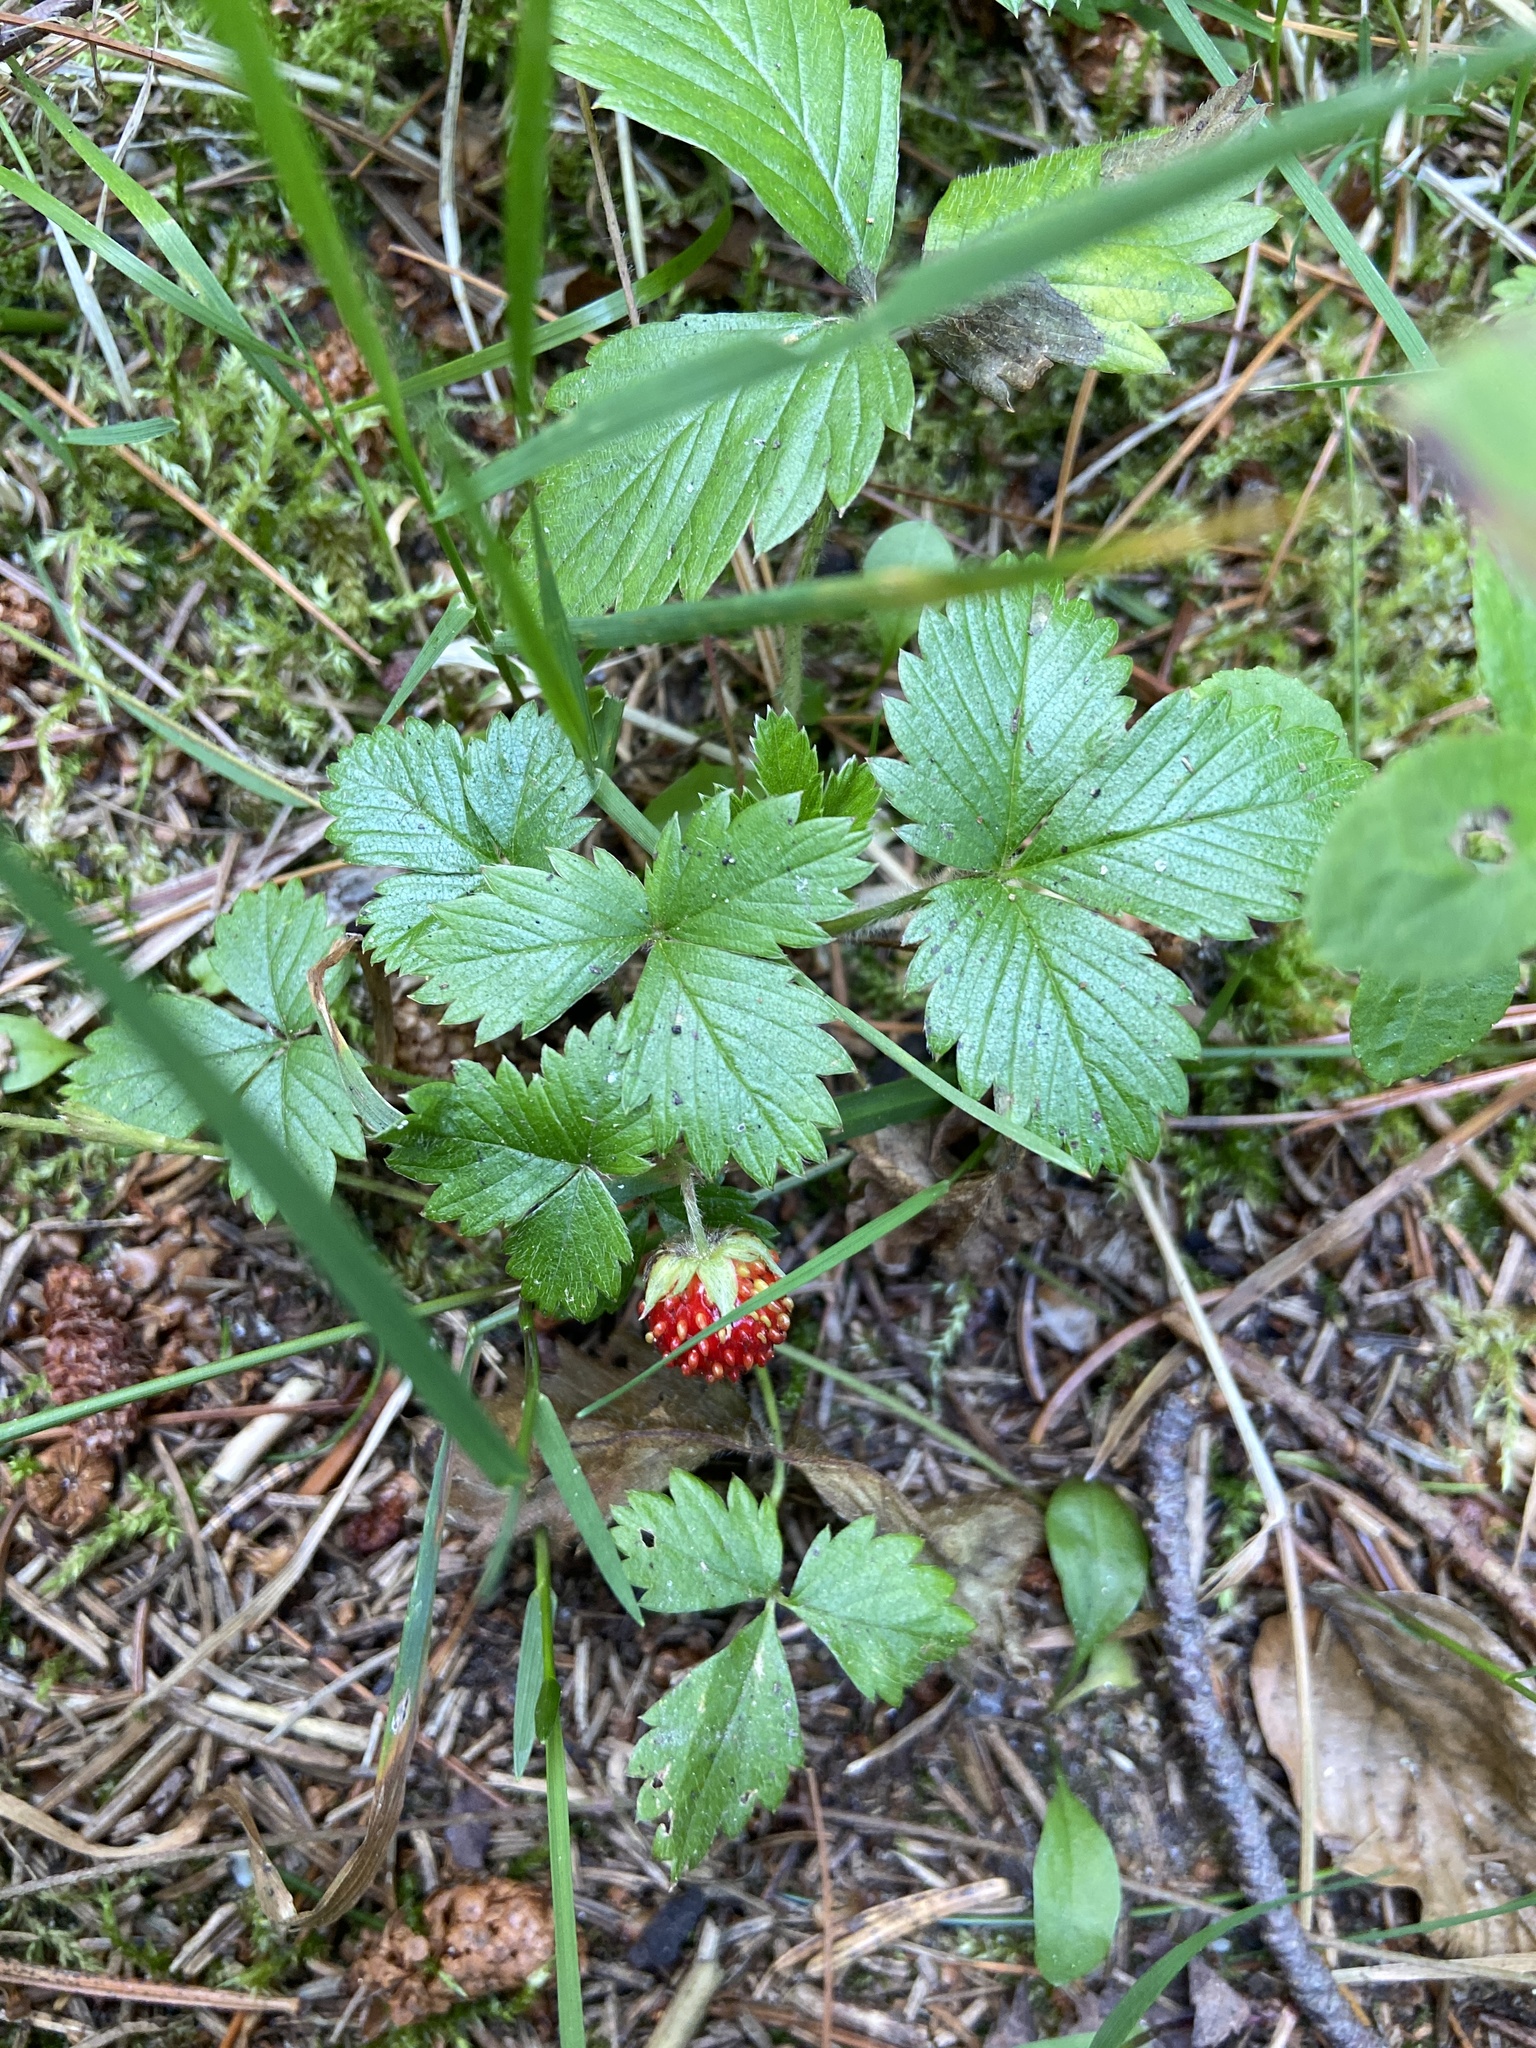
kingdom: Plantae
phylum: Tracheophyta
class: Magnoliopsida
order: Rosales
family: Rosaceae
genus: Fragaria
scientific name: Fragaria vesca
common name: Wild strawberry
